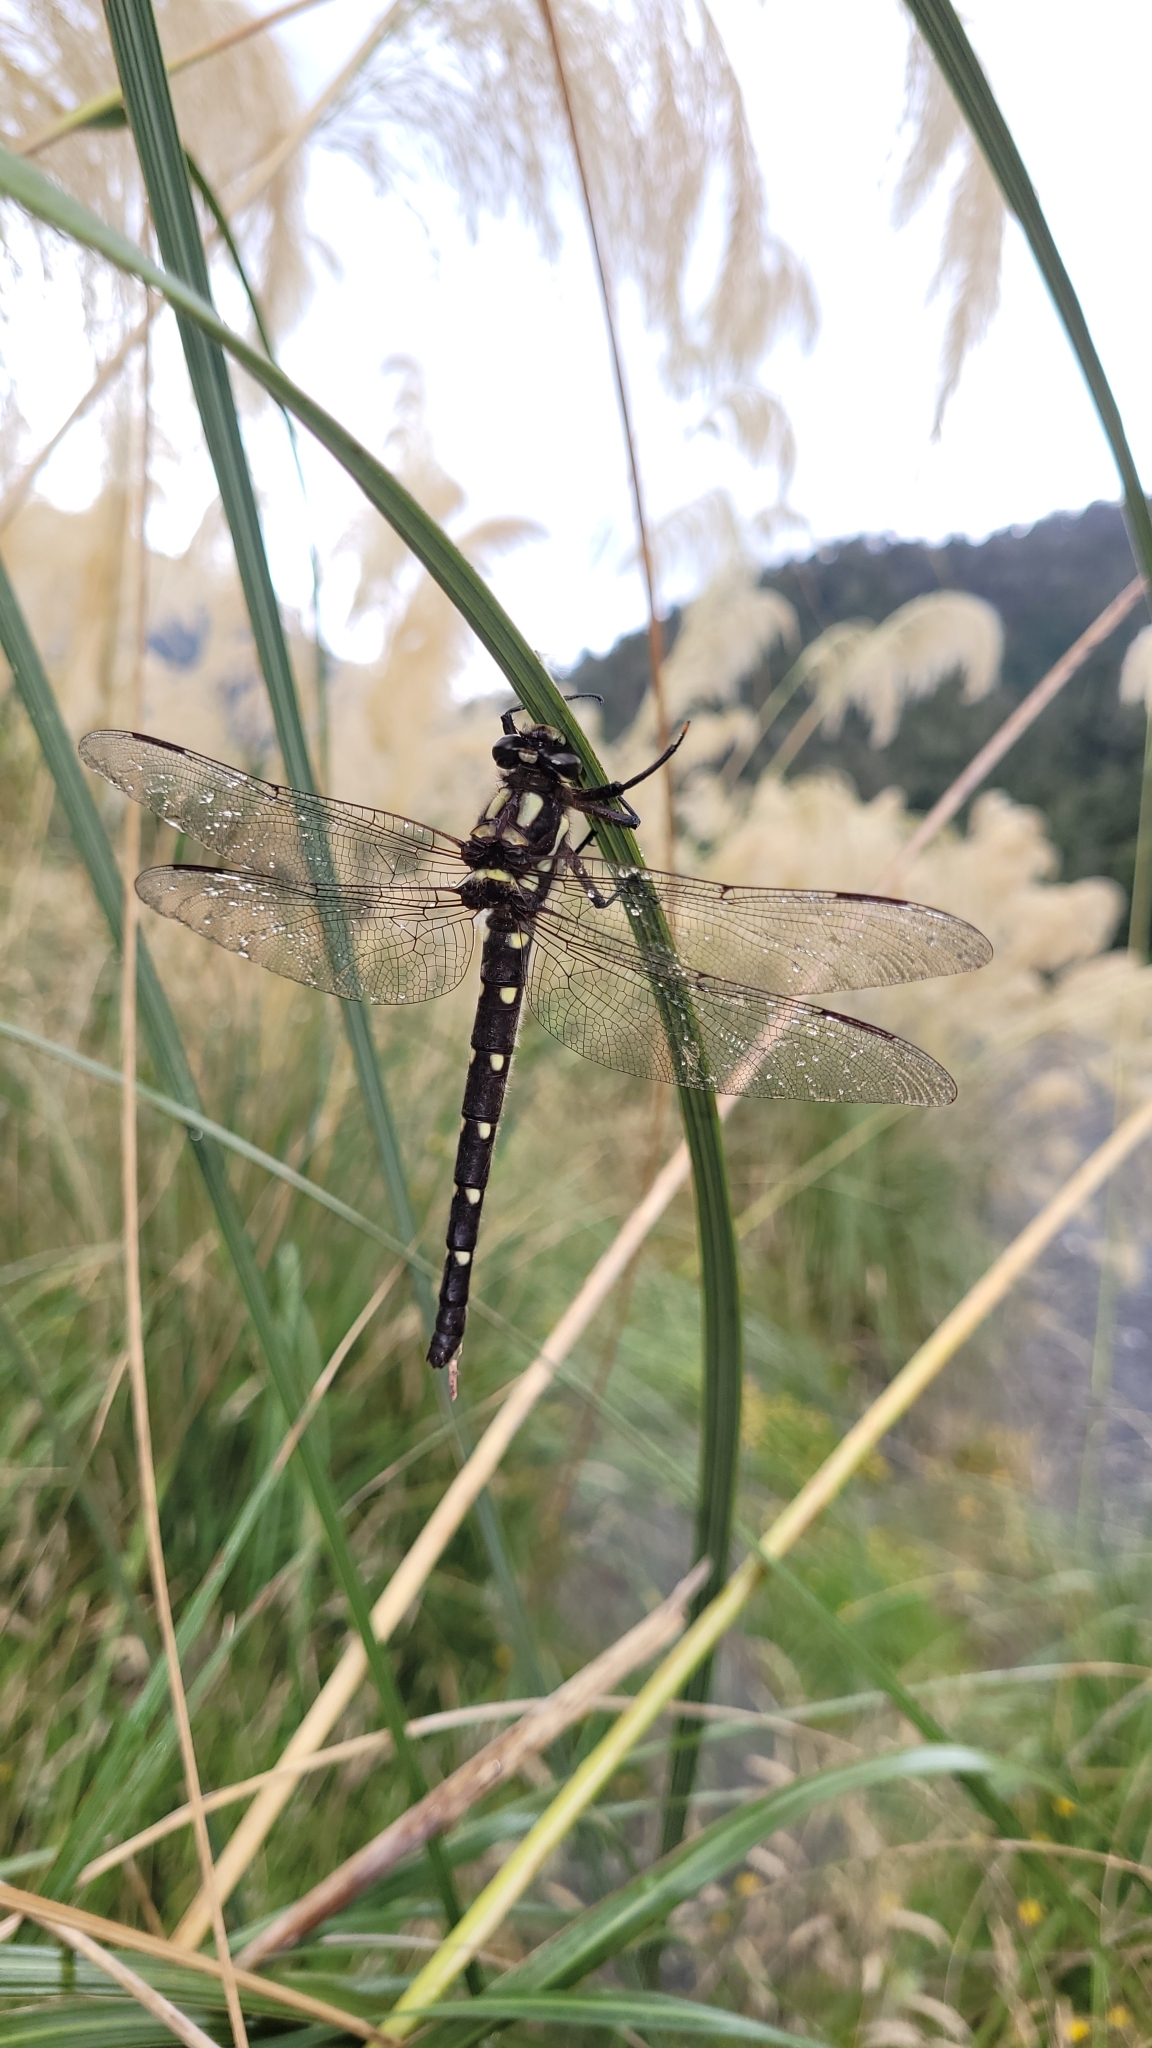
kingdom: Animalia
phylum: Arthropoda
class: Insecta
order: Odonata
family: Petaluridae
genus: Uropetala
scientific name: Uropetala carovei
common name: Bush giant dragonfly
